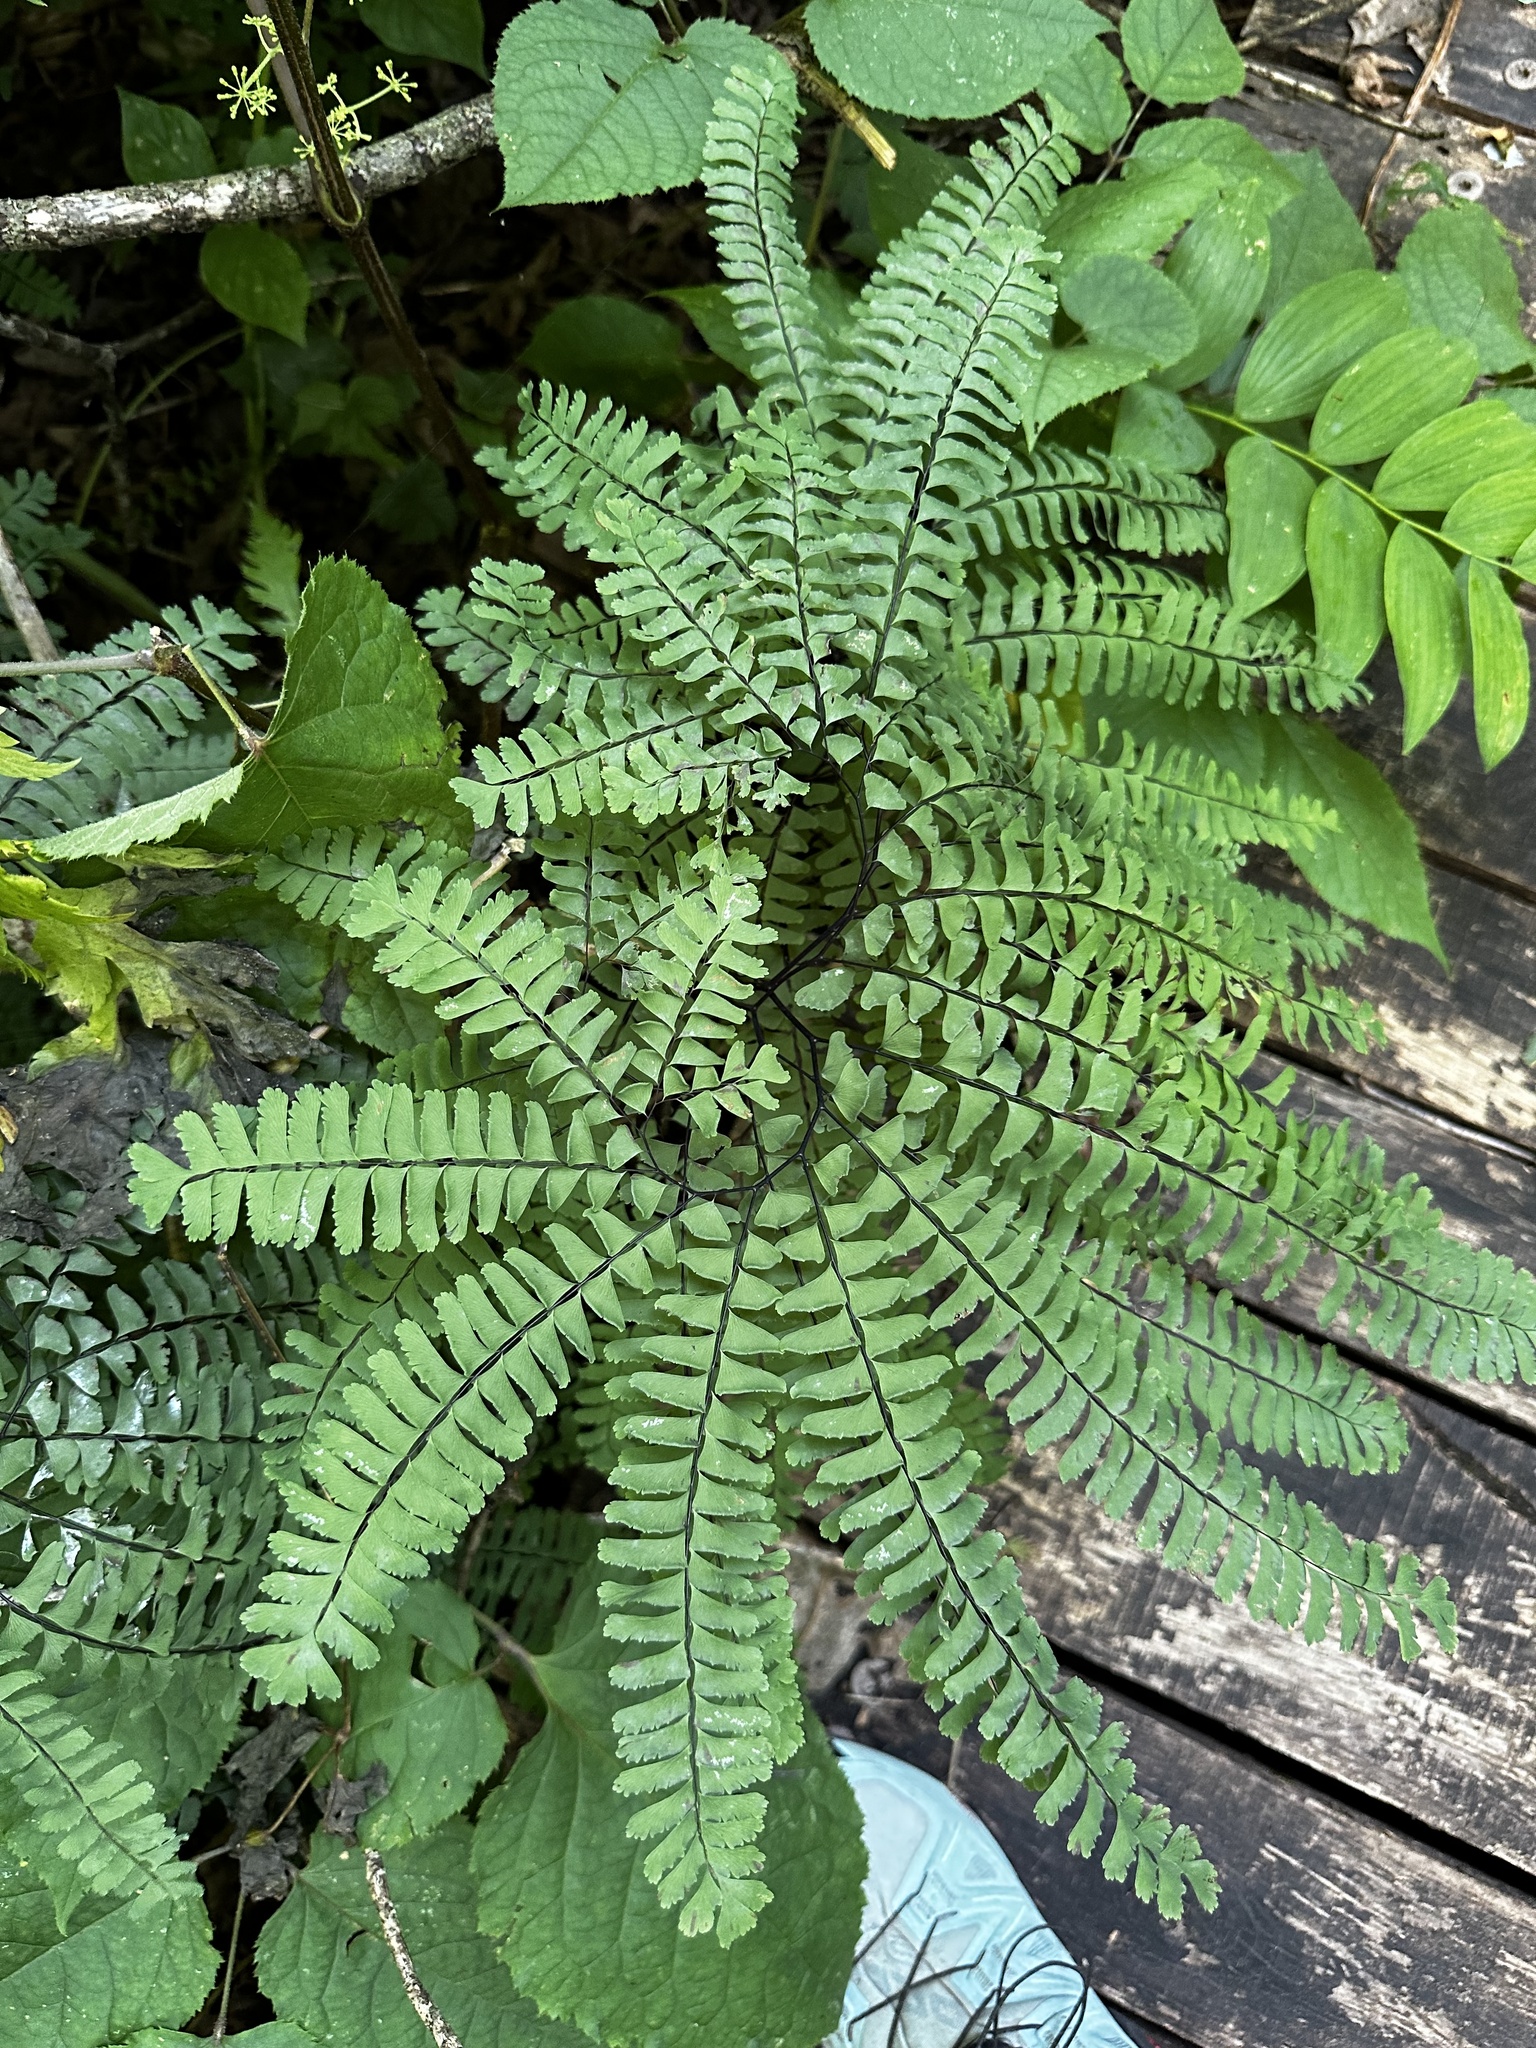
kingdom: Plantae
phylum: Tracheophyta
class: Polypodiopsida
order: Polypodiales
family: Pteridaceae
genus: Adiantum
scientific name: Adiantum pedatum
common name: Five-finger fern
